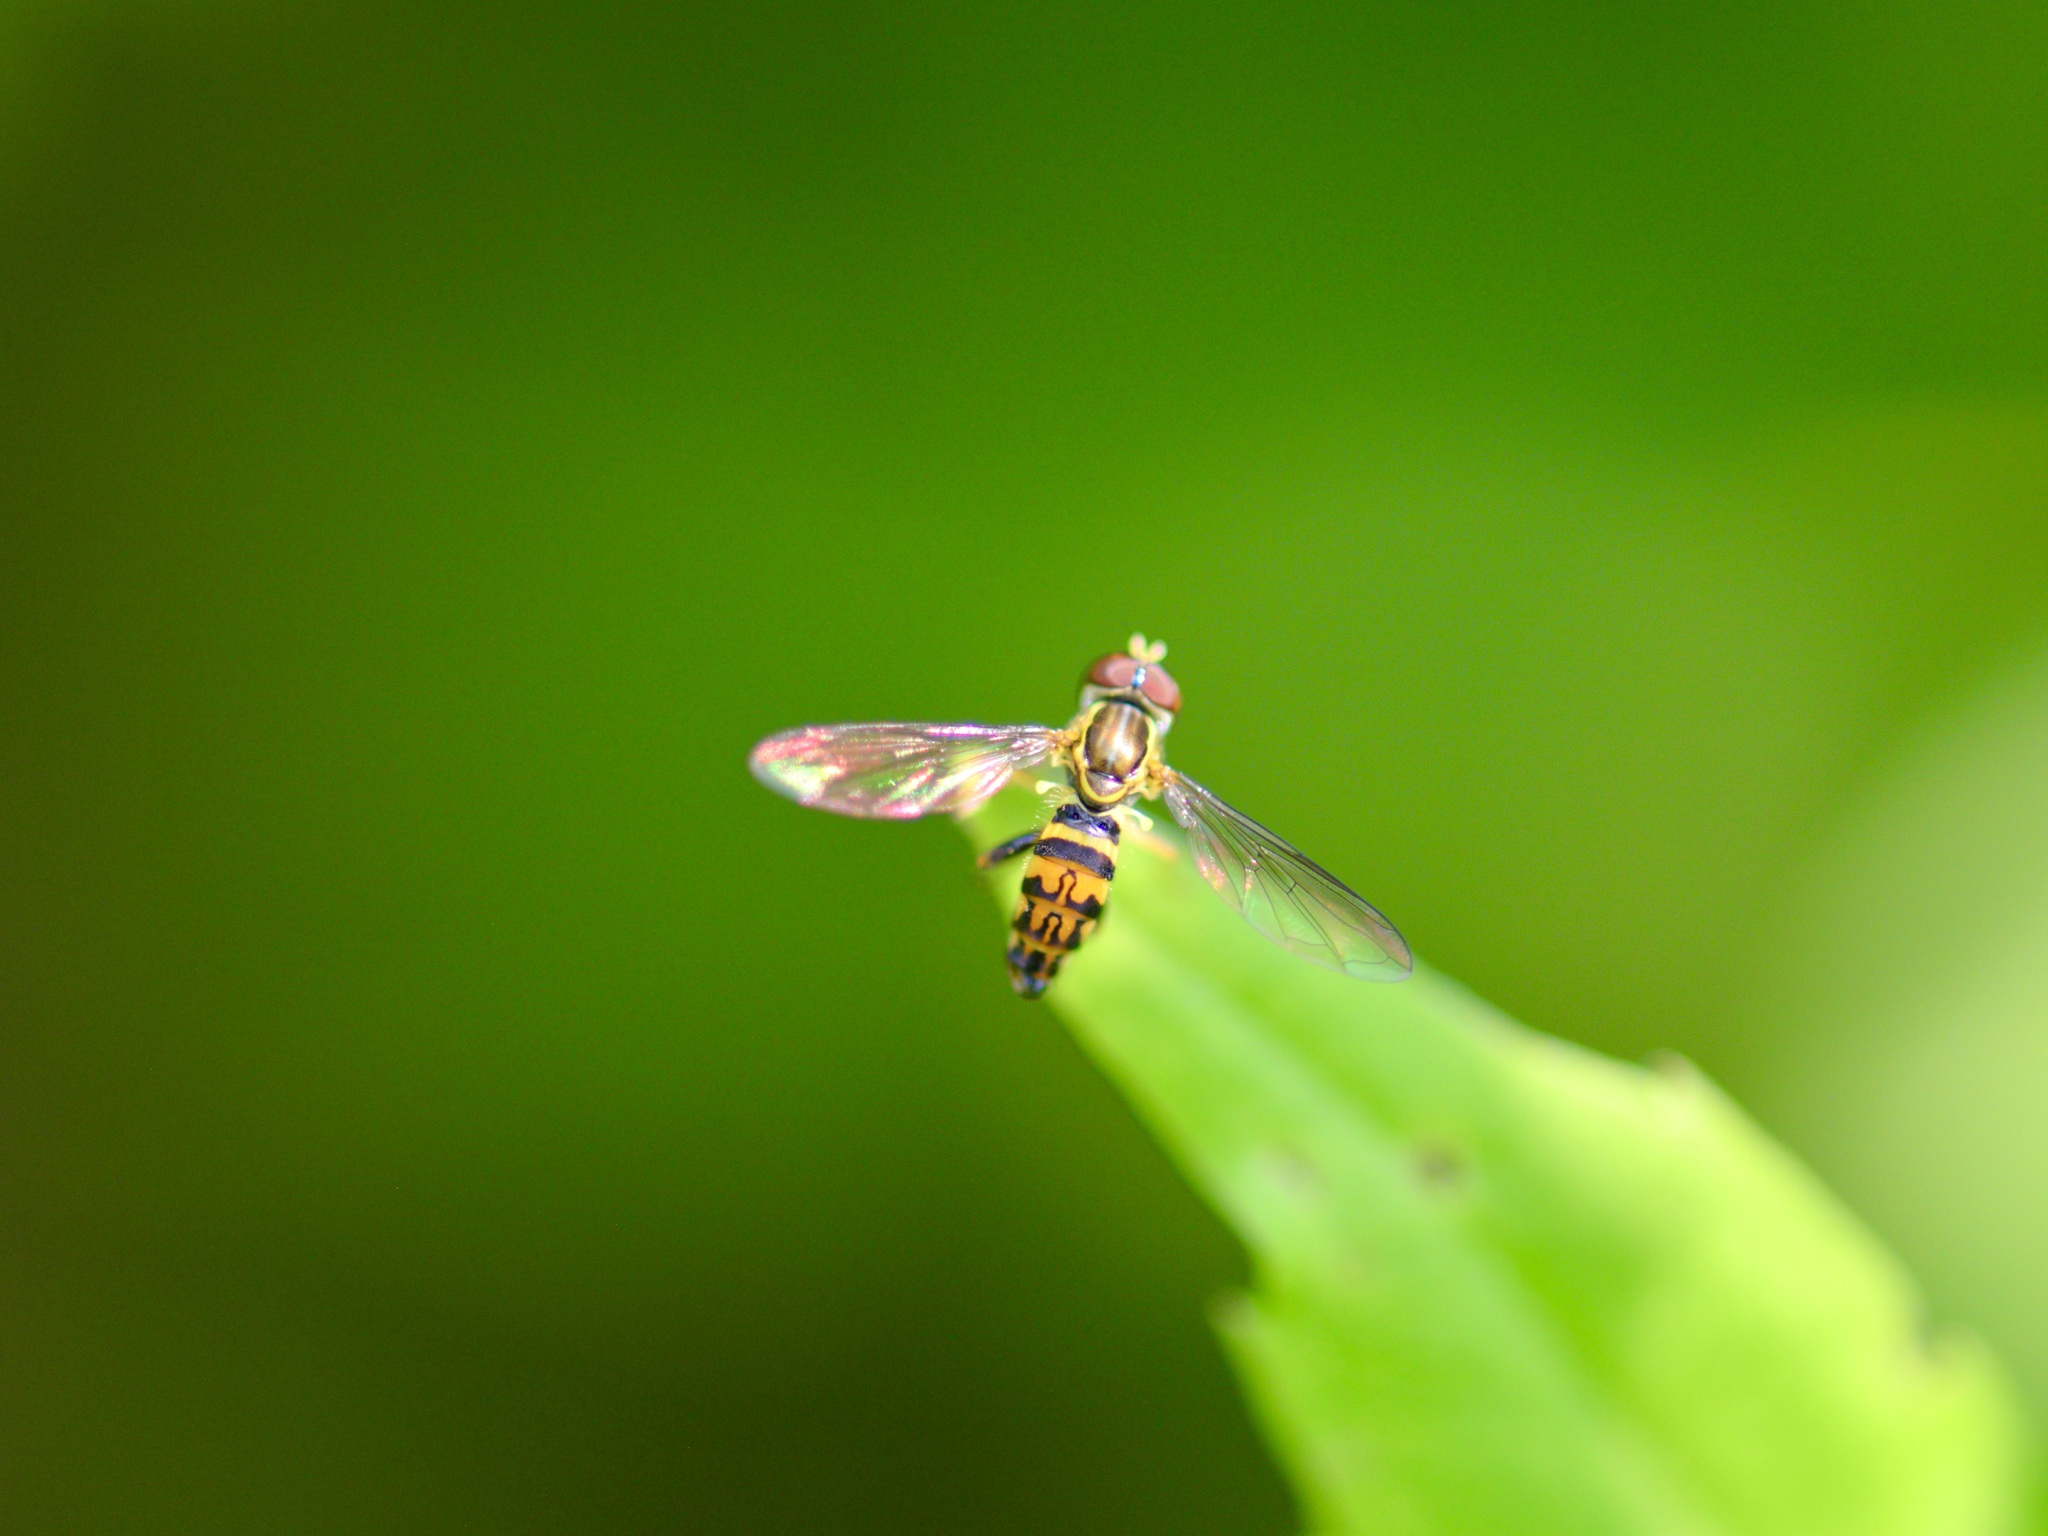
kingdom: Animalia
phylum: Arthropoda
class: Insecta
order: Diptera
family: Syrphidae
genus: Toxomerus
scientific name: Toxomerus geminatus
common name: Eastern calligrapher
